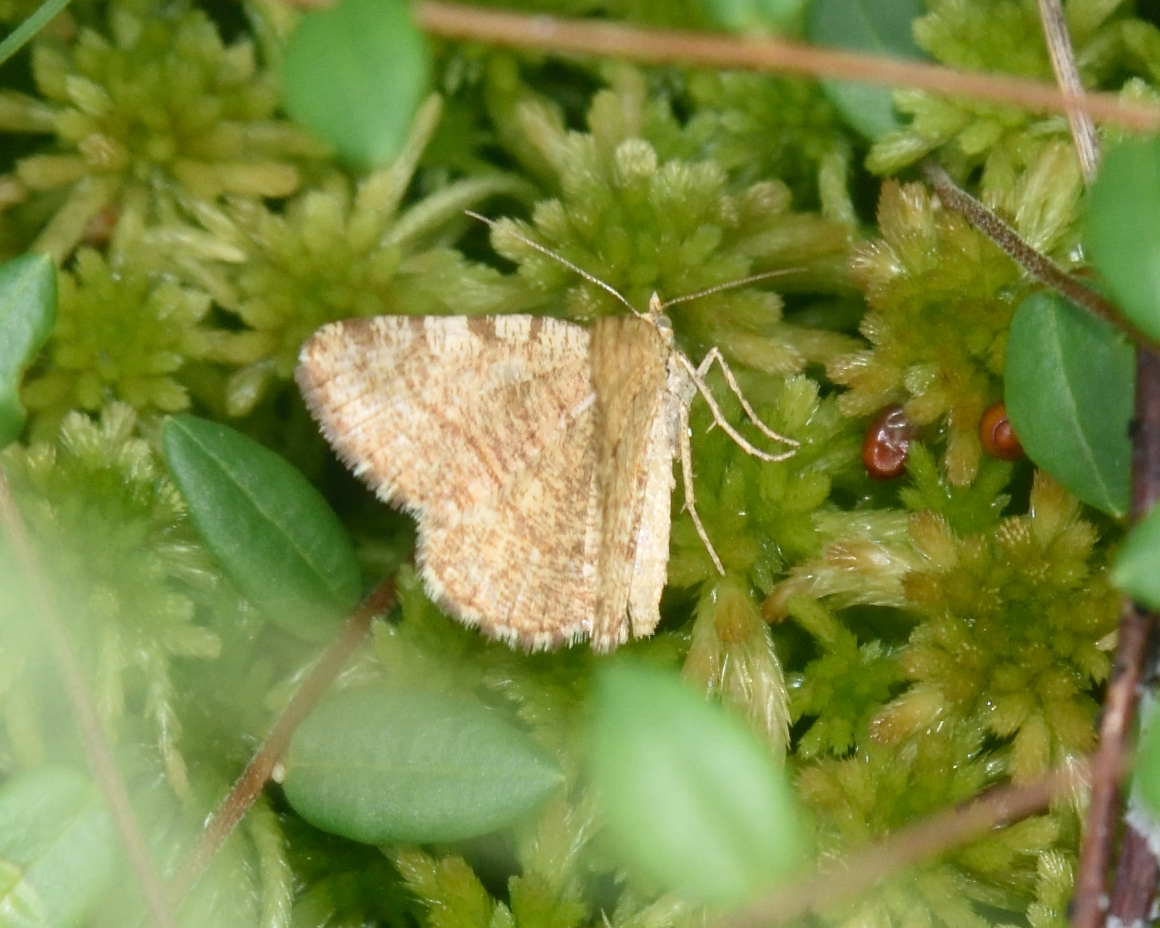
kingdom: Animalia
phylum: Arthropoda
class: Insecta
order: Lepidoptera
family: Geometridae
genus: Macaria
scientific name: Macaria brunneata
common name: Rannoch looper
